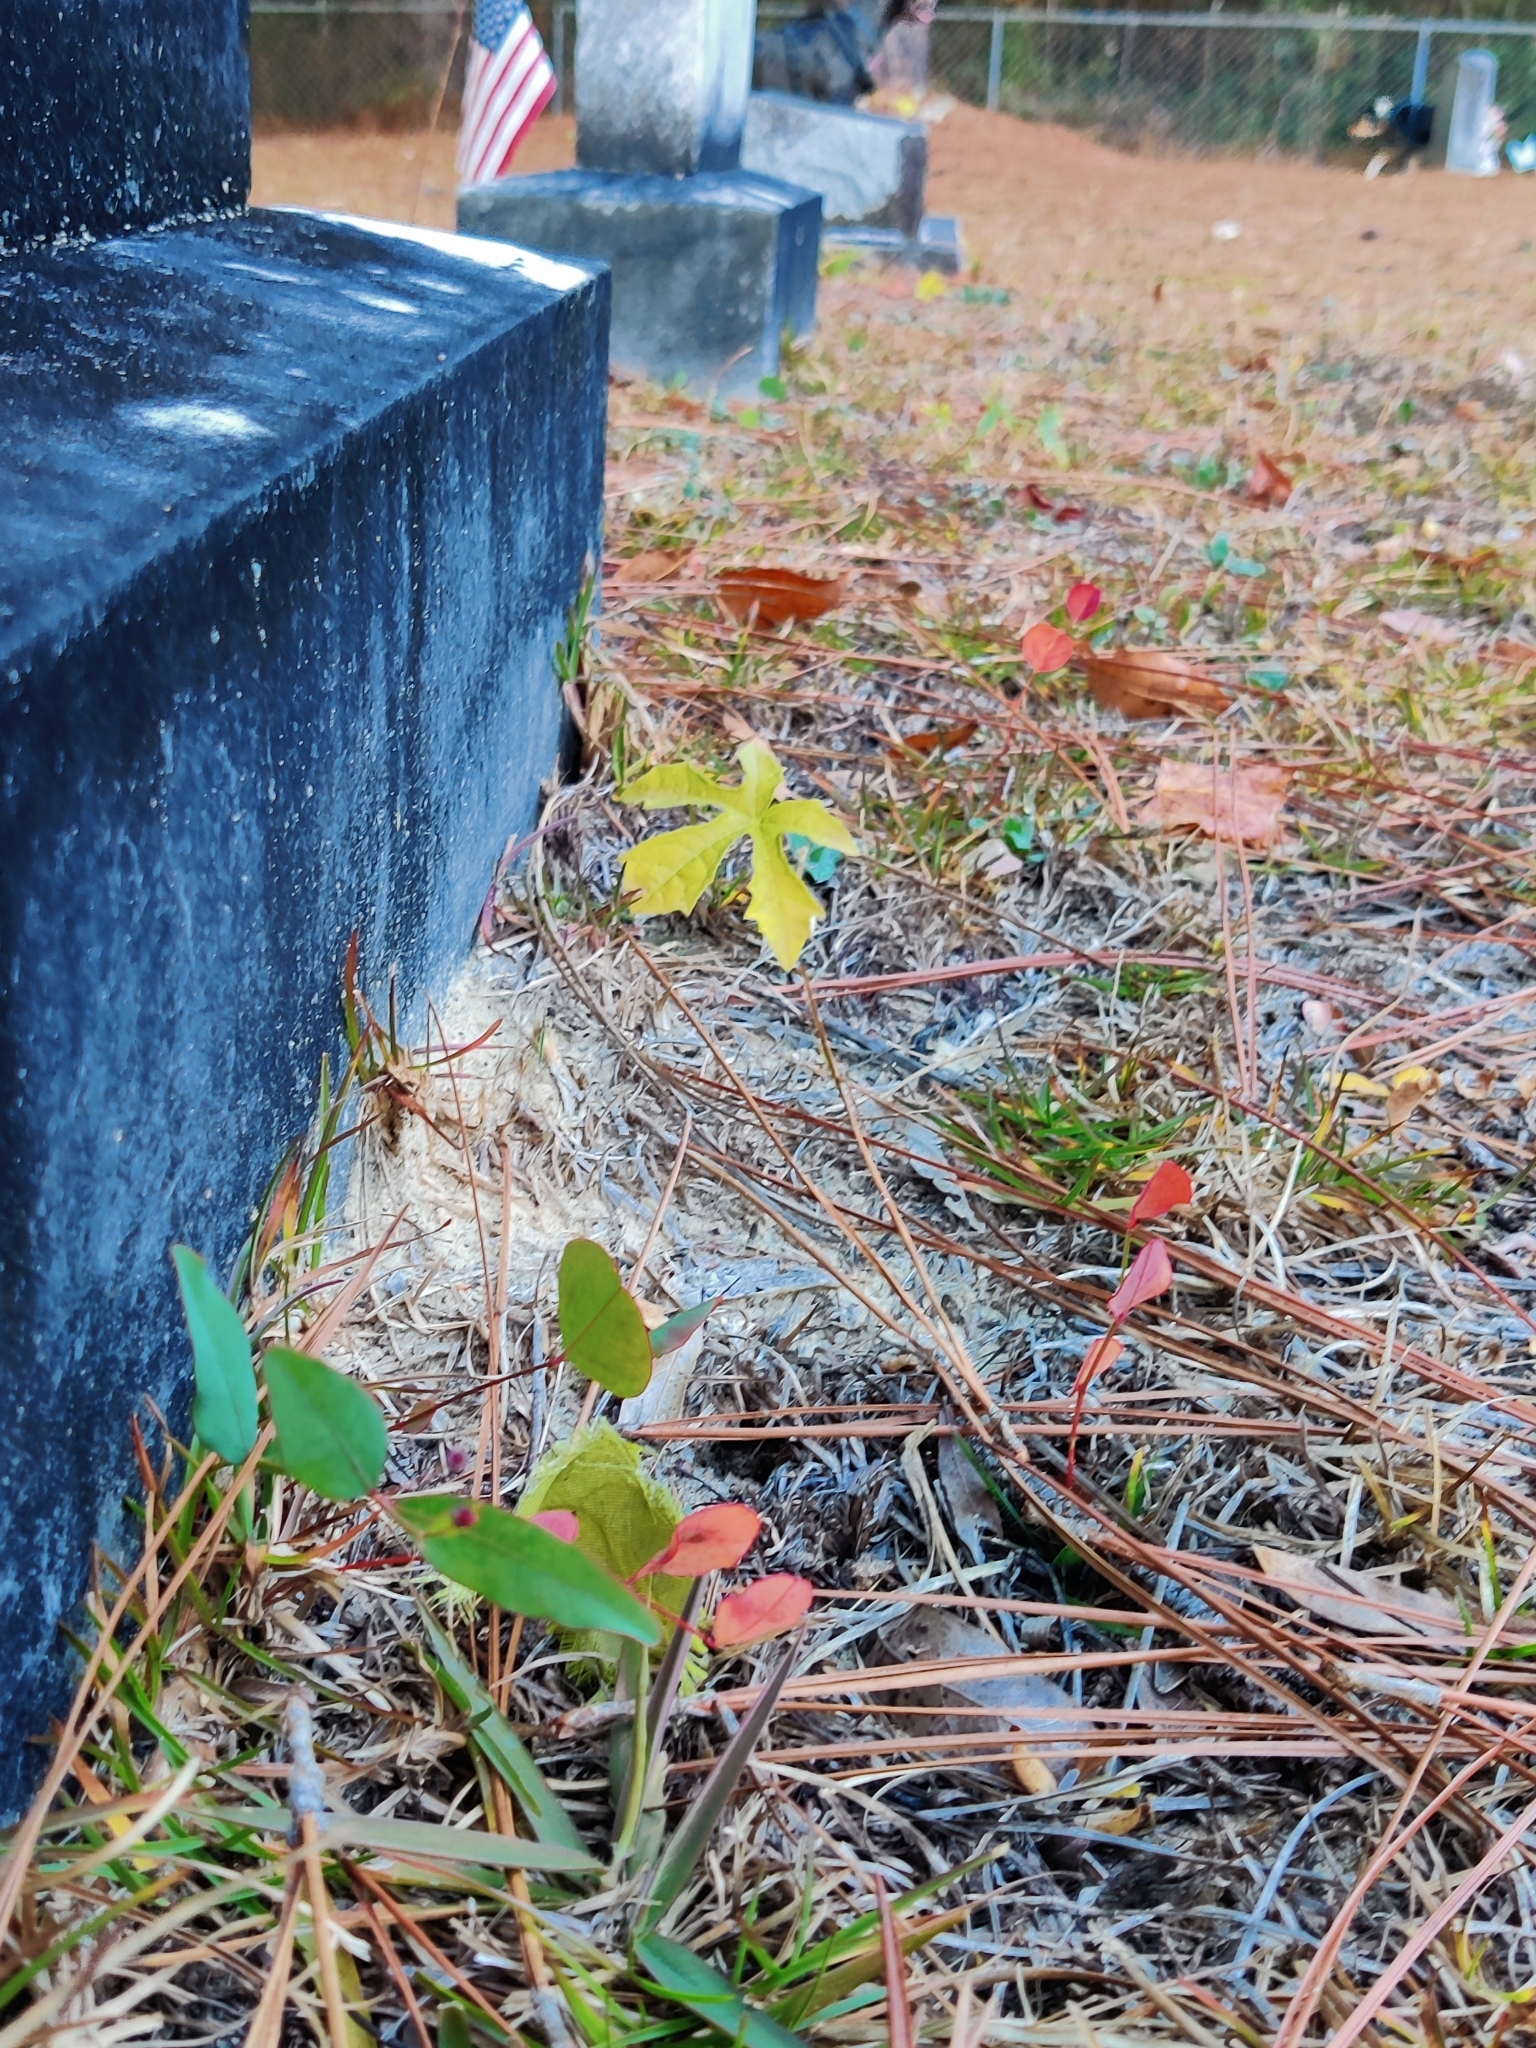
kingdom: Plantae
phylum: Tracheophyta
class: Magnoliopsida
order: Malpighiales
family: Euphorbiaceae
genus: Euphorbia
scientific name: Euphorbia exserta
